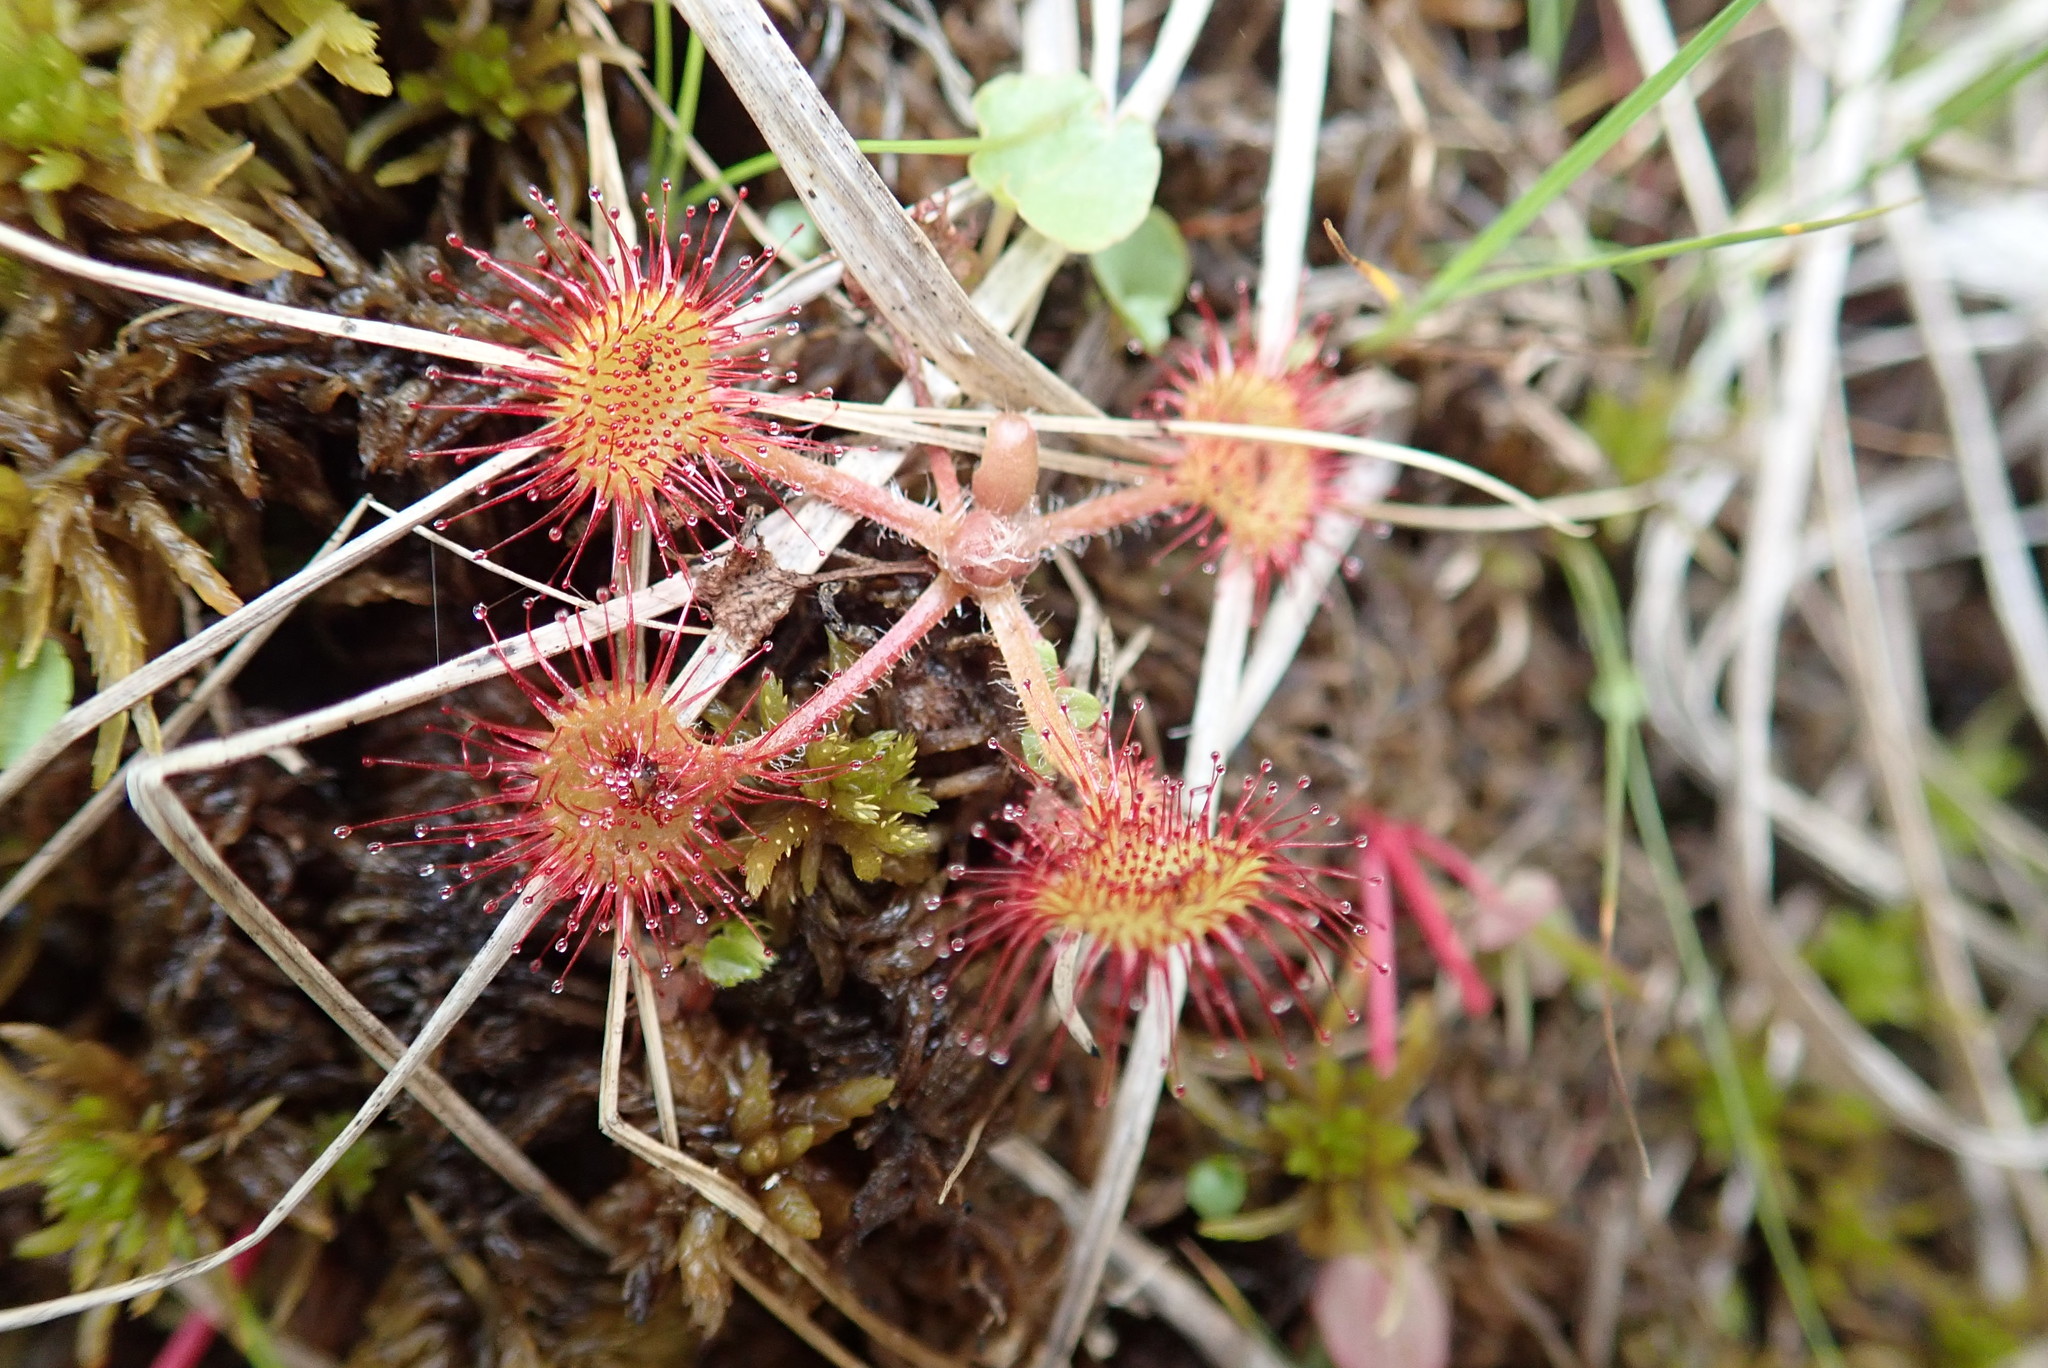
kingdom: Plantae
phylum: Tracheophyta
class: Magnoliopsida
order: Caryophyllales
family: Droseraceae
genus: Drosera
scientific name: Drosera rotundifolia
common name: Round-leaved sundew
